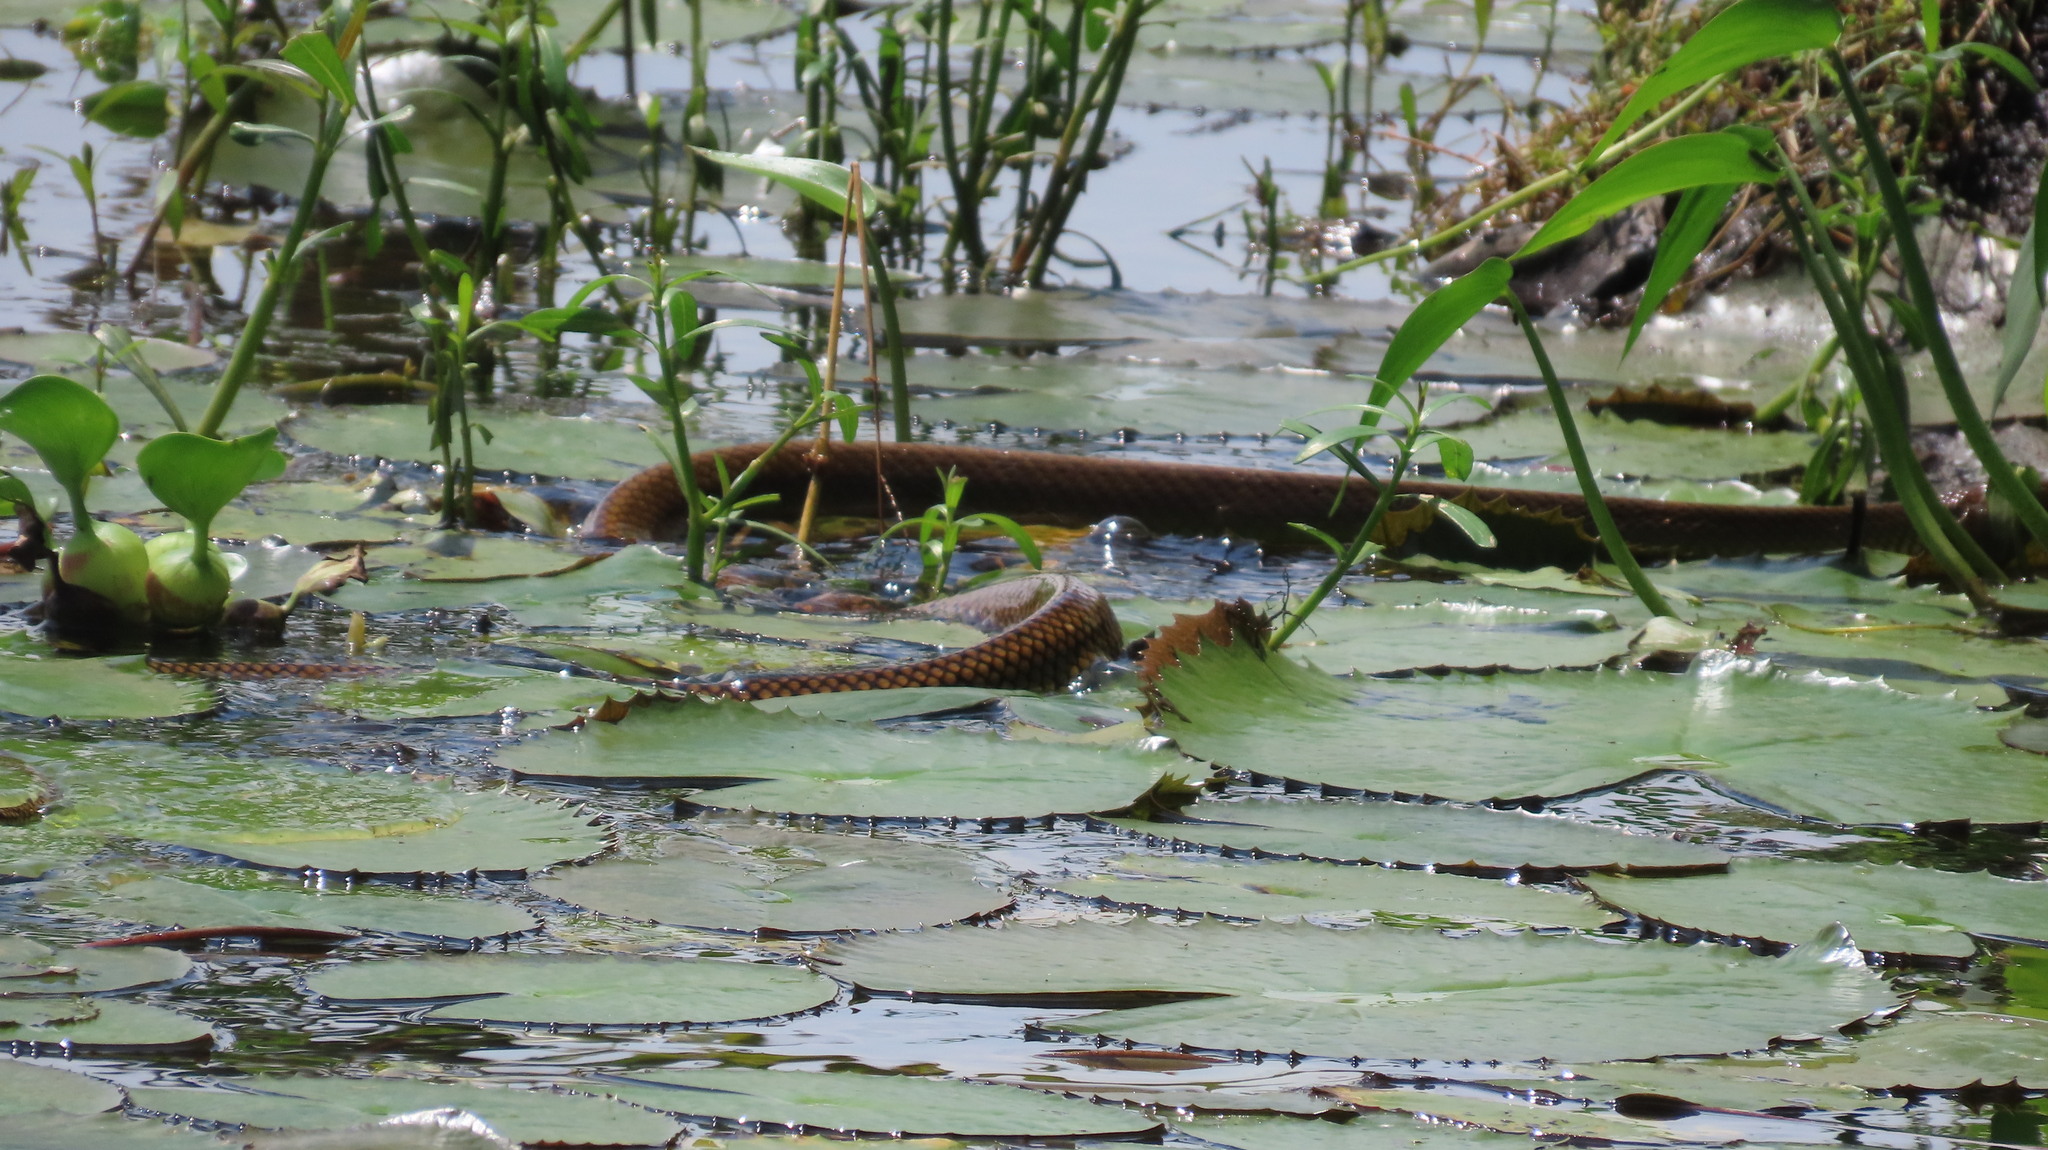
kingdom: Animalia
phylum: Chordata
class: Squamata
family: Colubridae
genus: Ptyas
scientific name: Ptyas mucosa
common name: Oriental ratsnake
